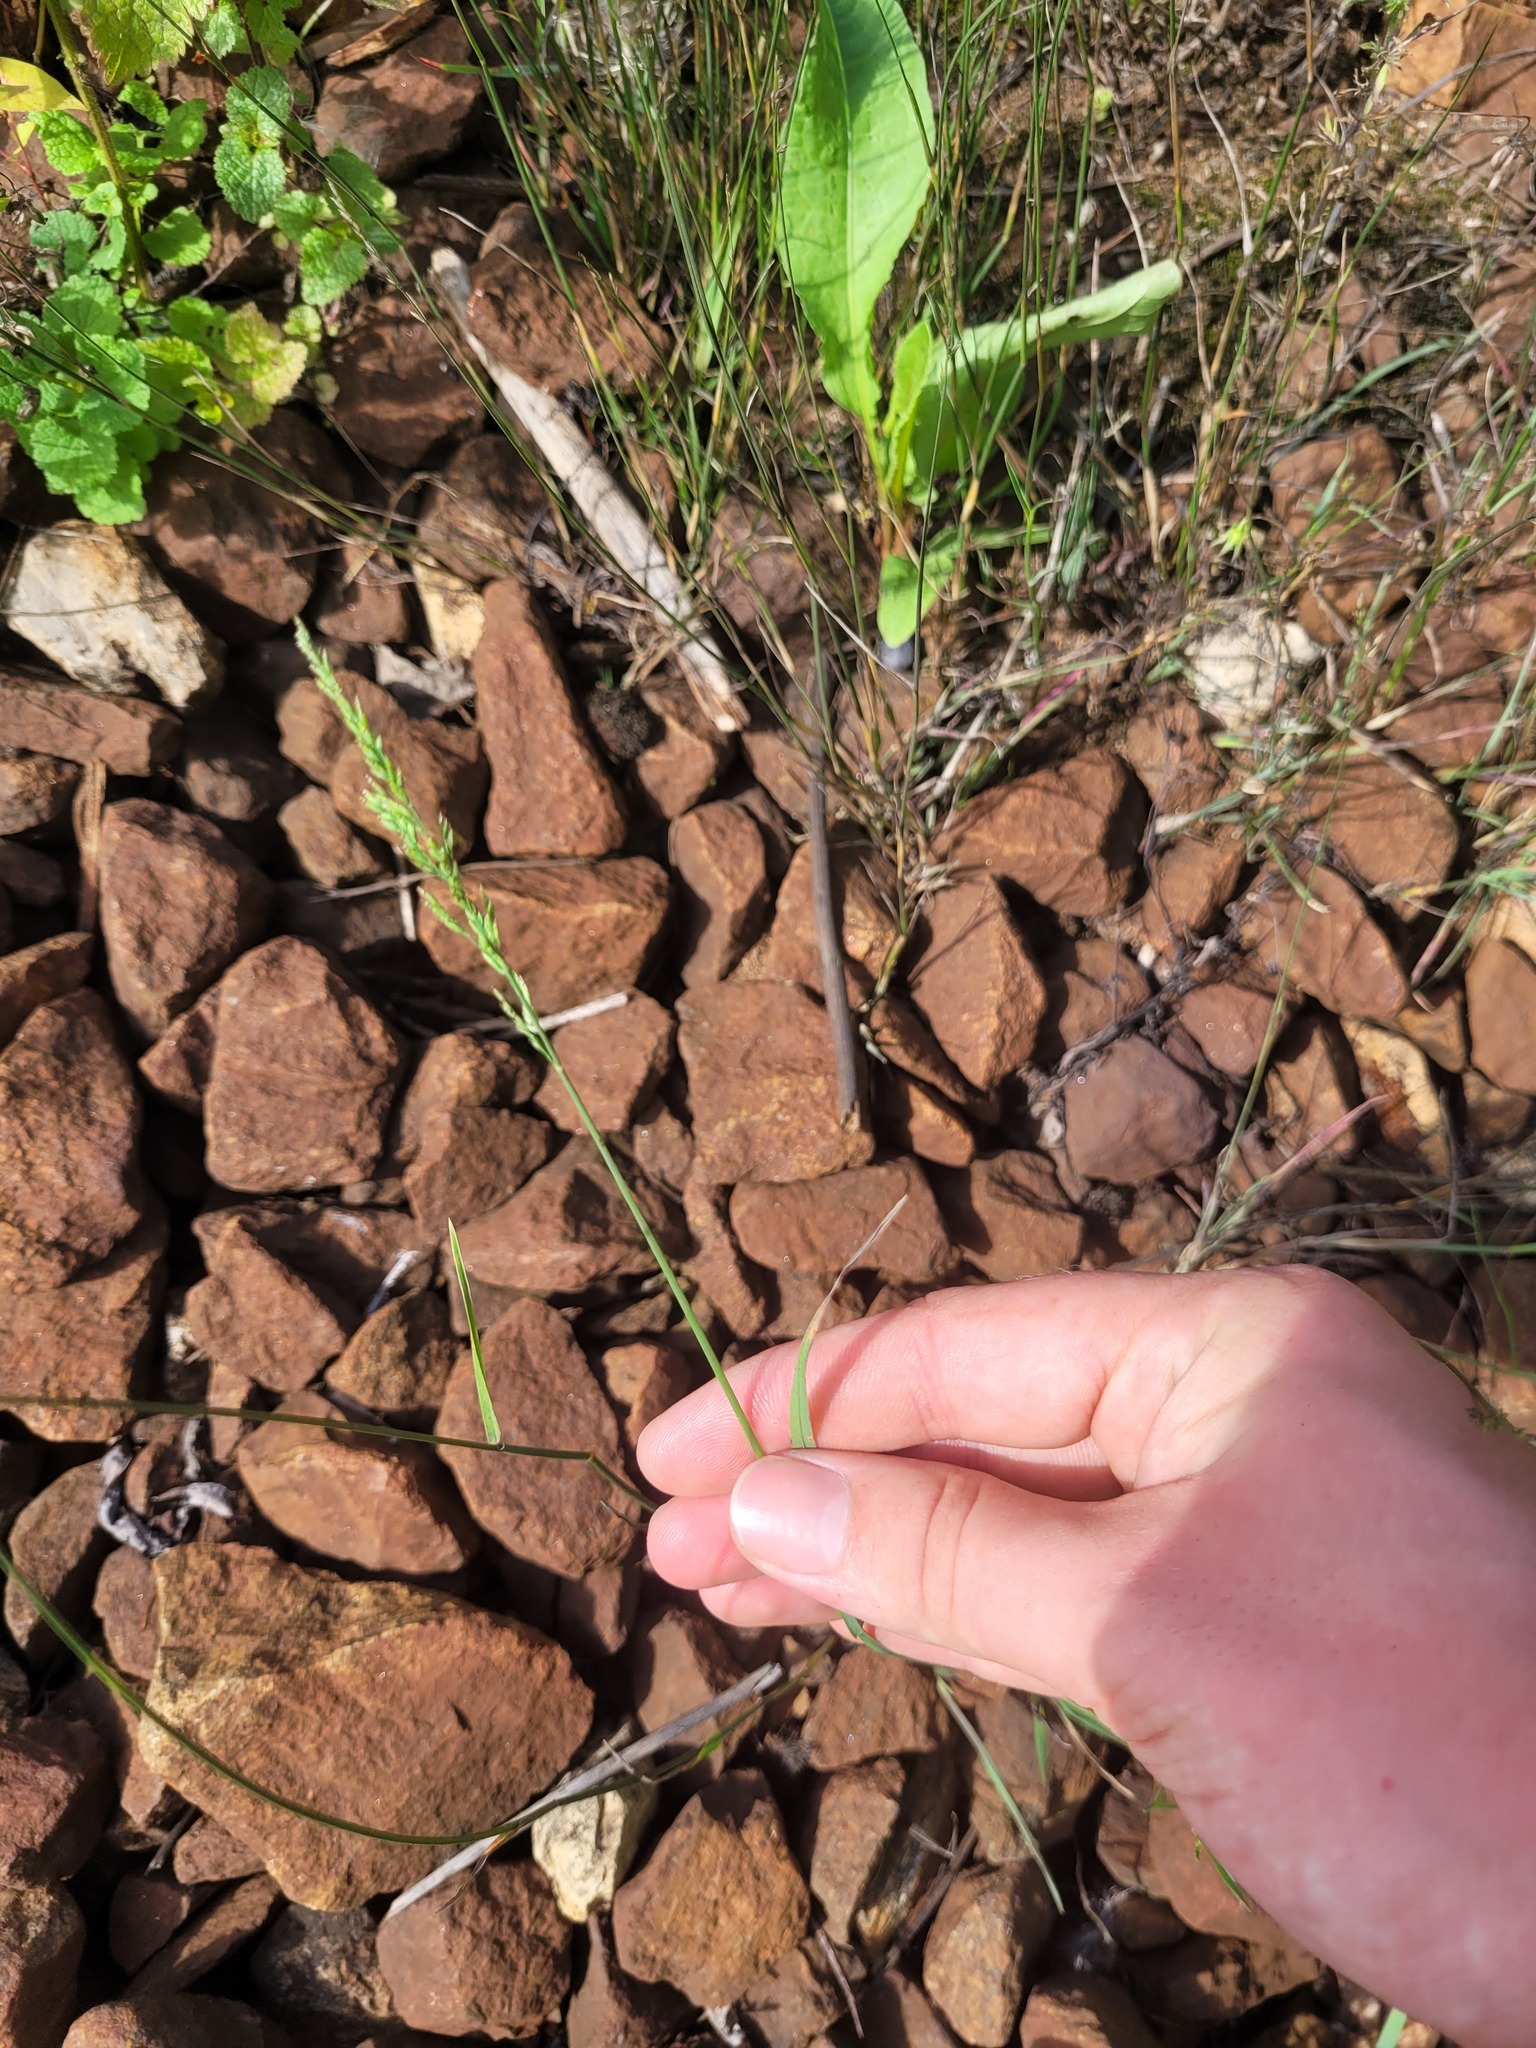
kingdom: Plantae
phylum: Tracheophyta
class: Liliopsida
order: Poales
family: Poaceae
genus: Poa
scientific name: Poa compressa
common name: Canada bluegrass
